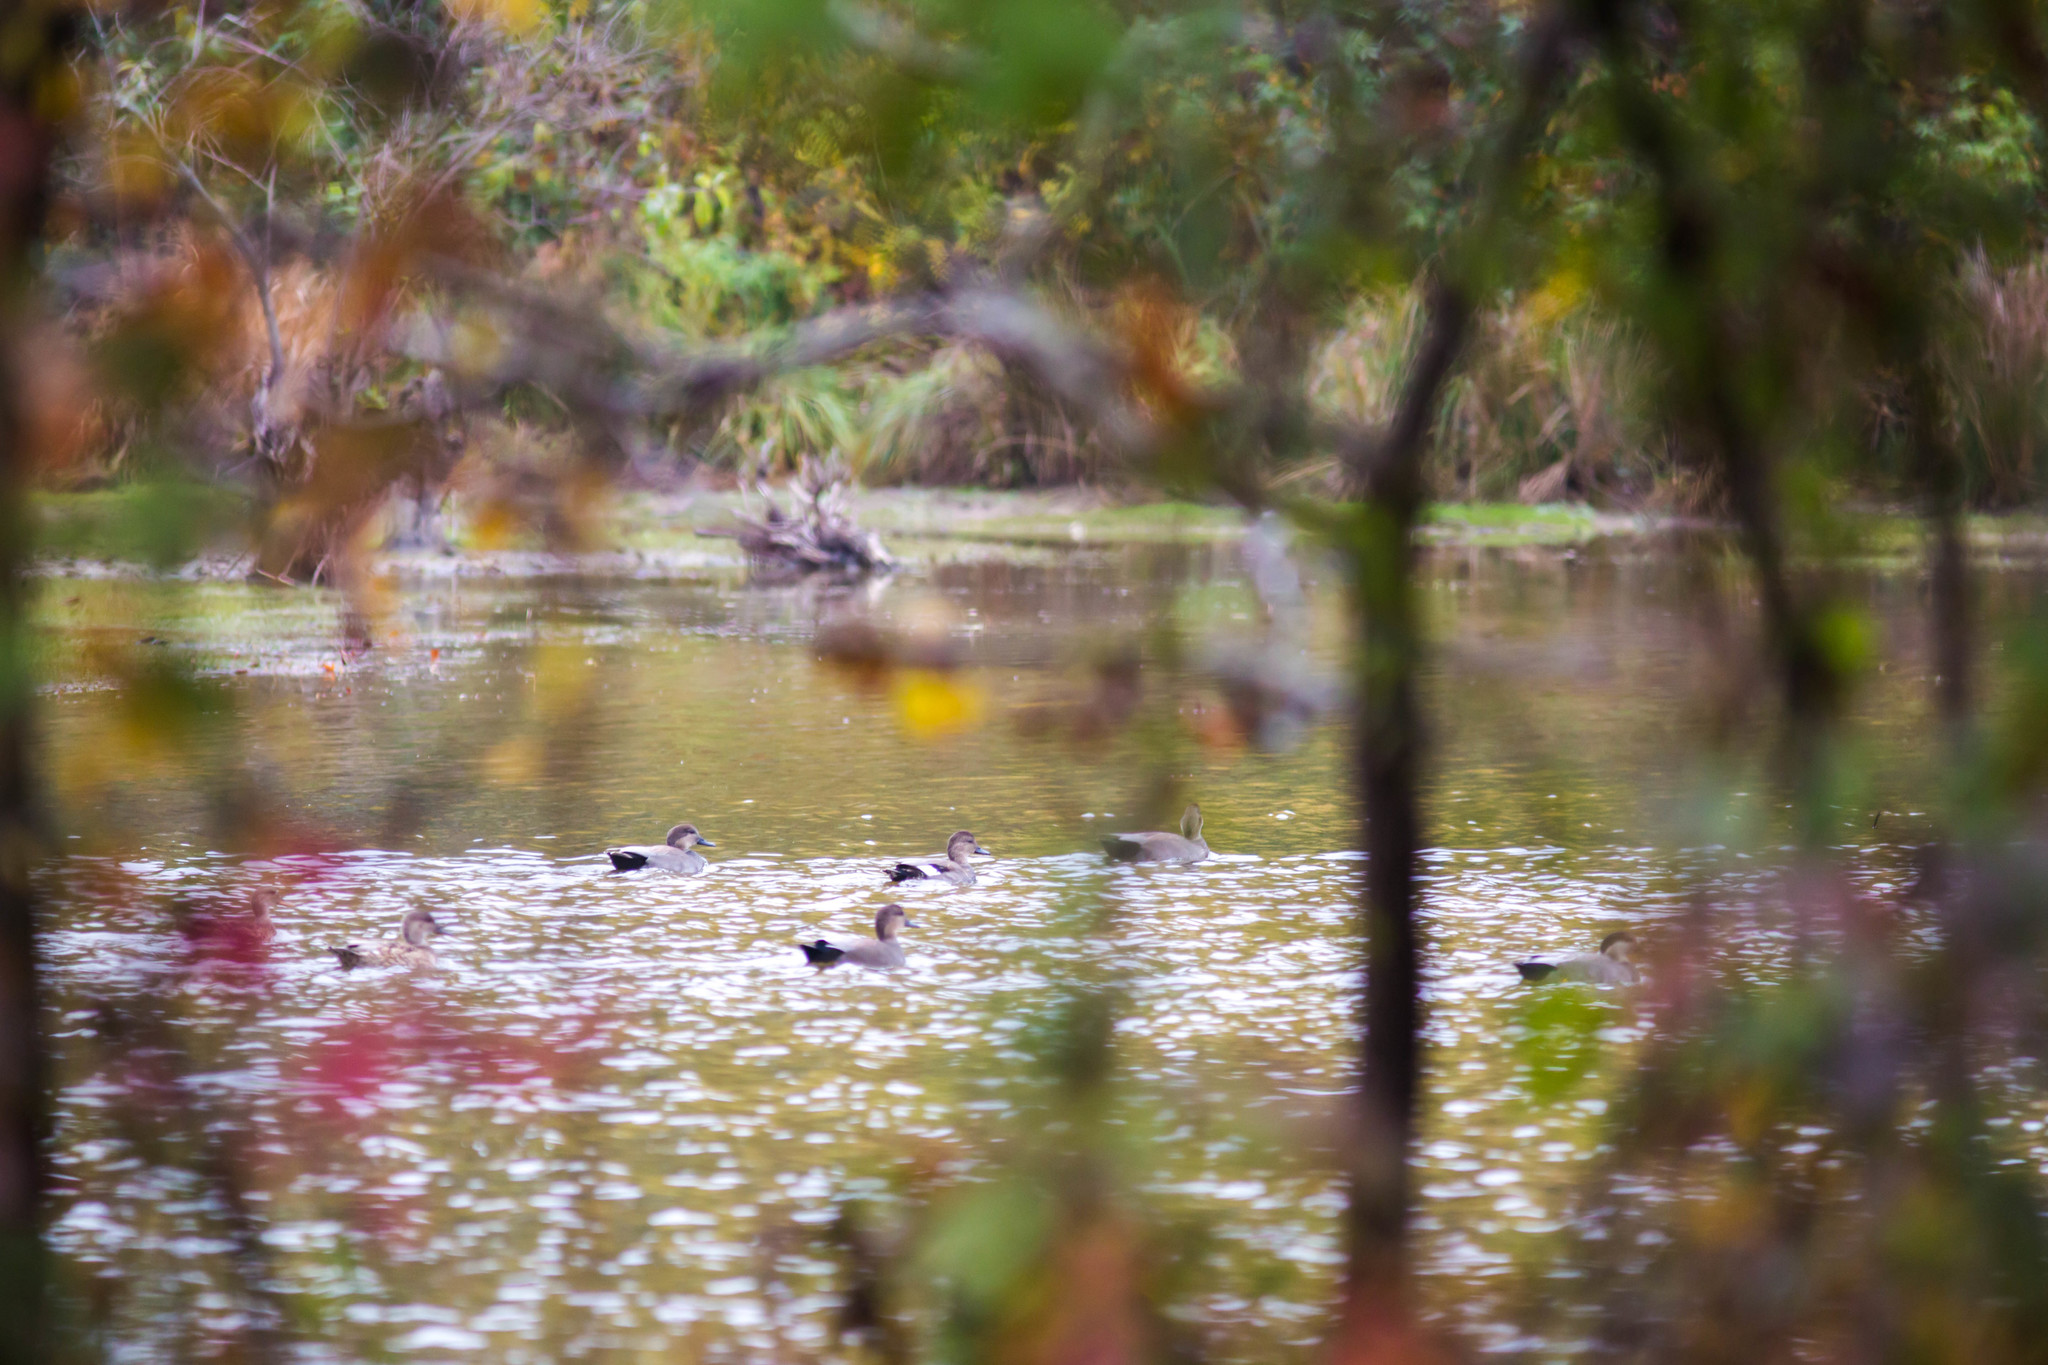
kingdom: Animalia
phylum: Chordata
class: Aves
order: Anseriformes
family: Anatidae
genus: Mareca
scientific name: Mareca strepera
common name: Gadwall
